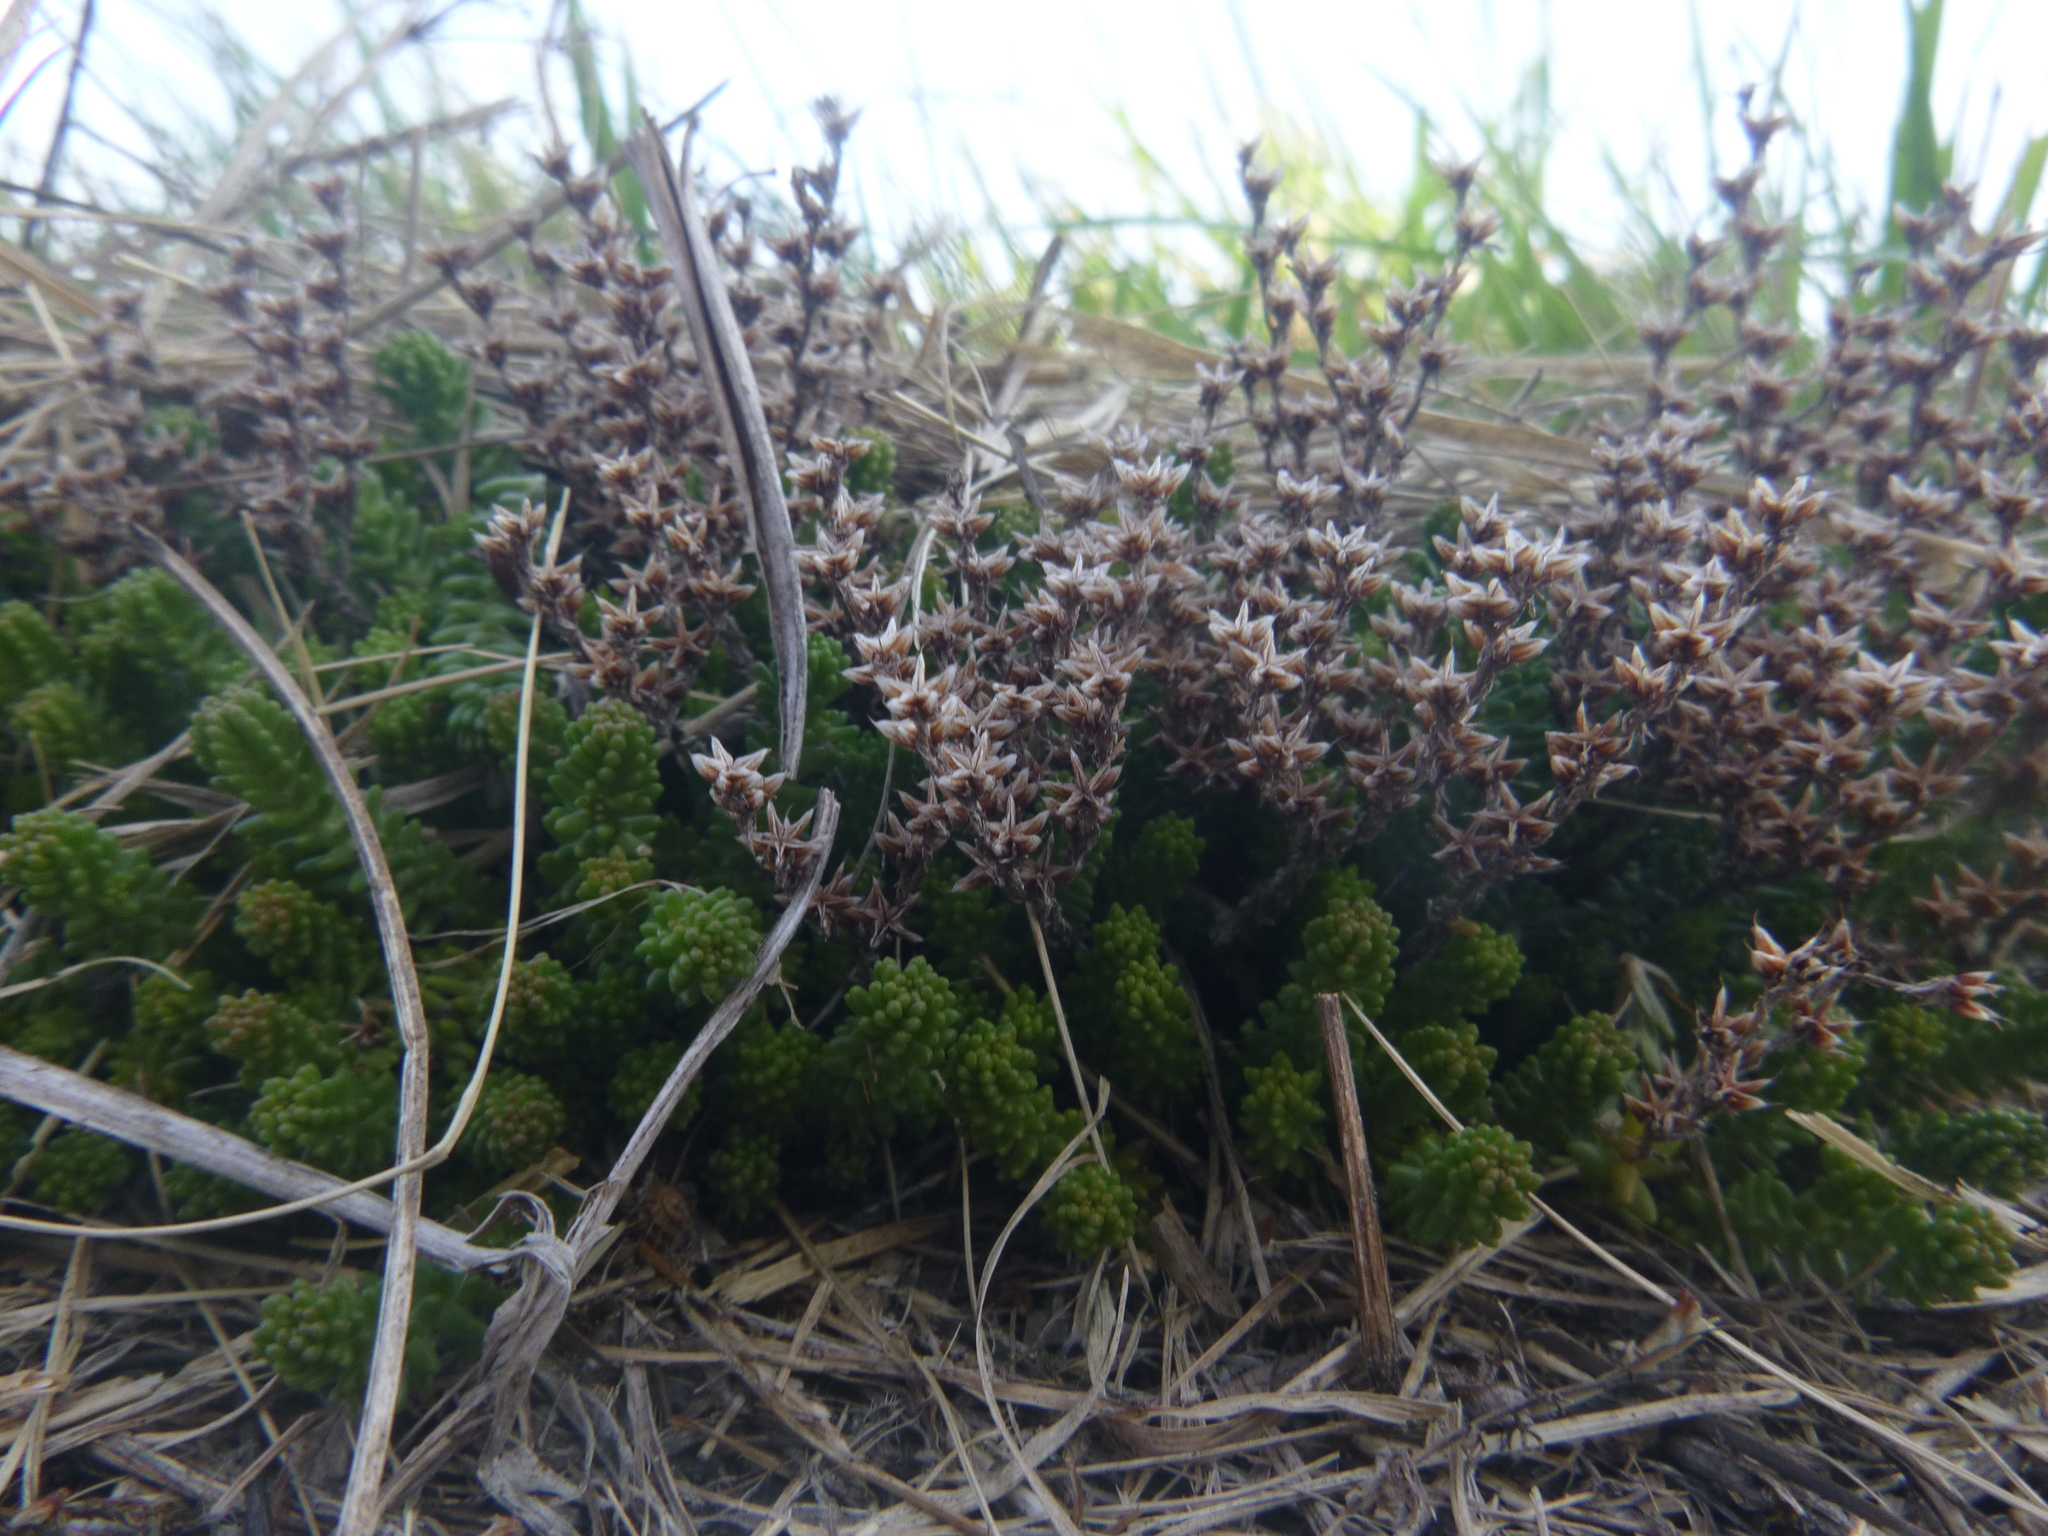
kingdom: Plantae
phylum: Tracheophyta
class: Magnoliopsida
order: Saxifragales
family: Crassulaceae
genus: Sedum
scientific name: Sedum sexangulare
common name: Tasteless stonecrop
